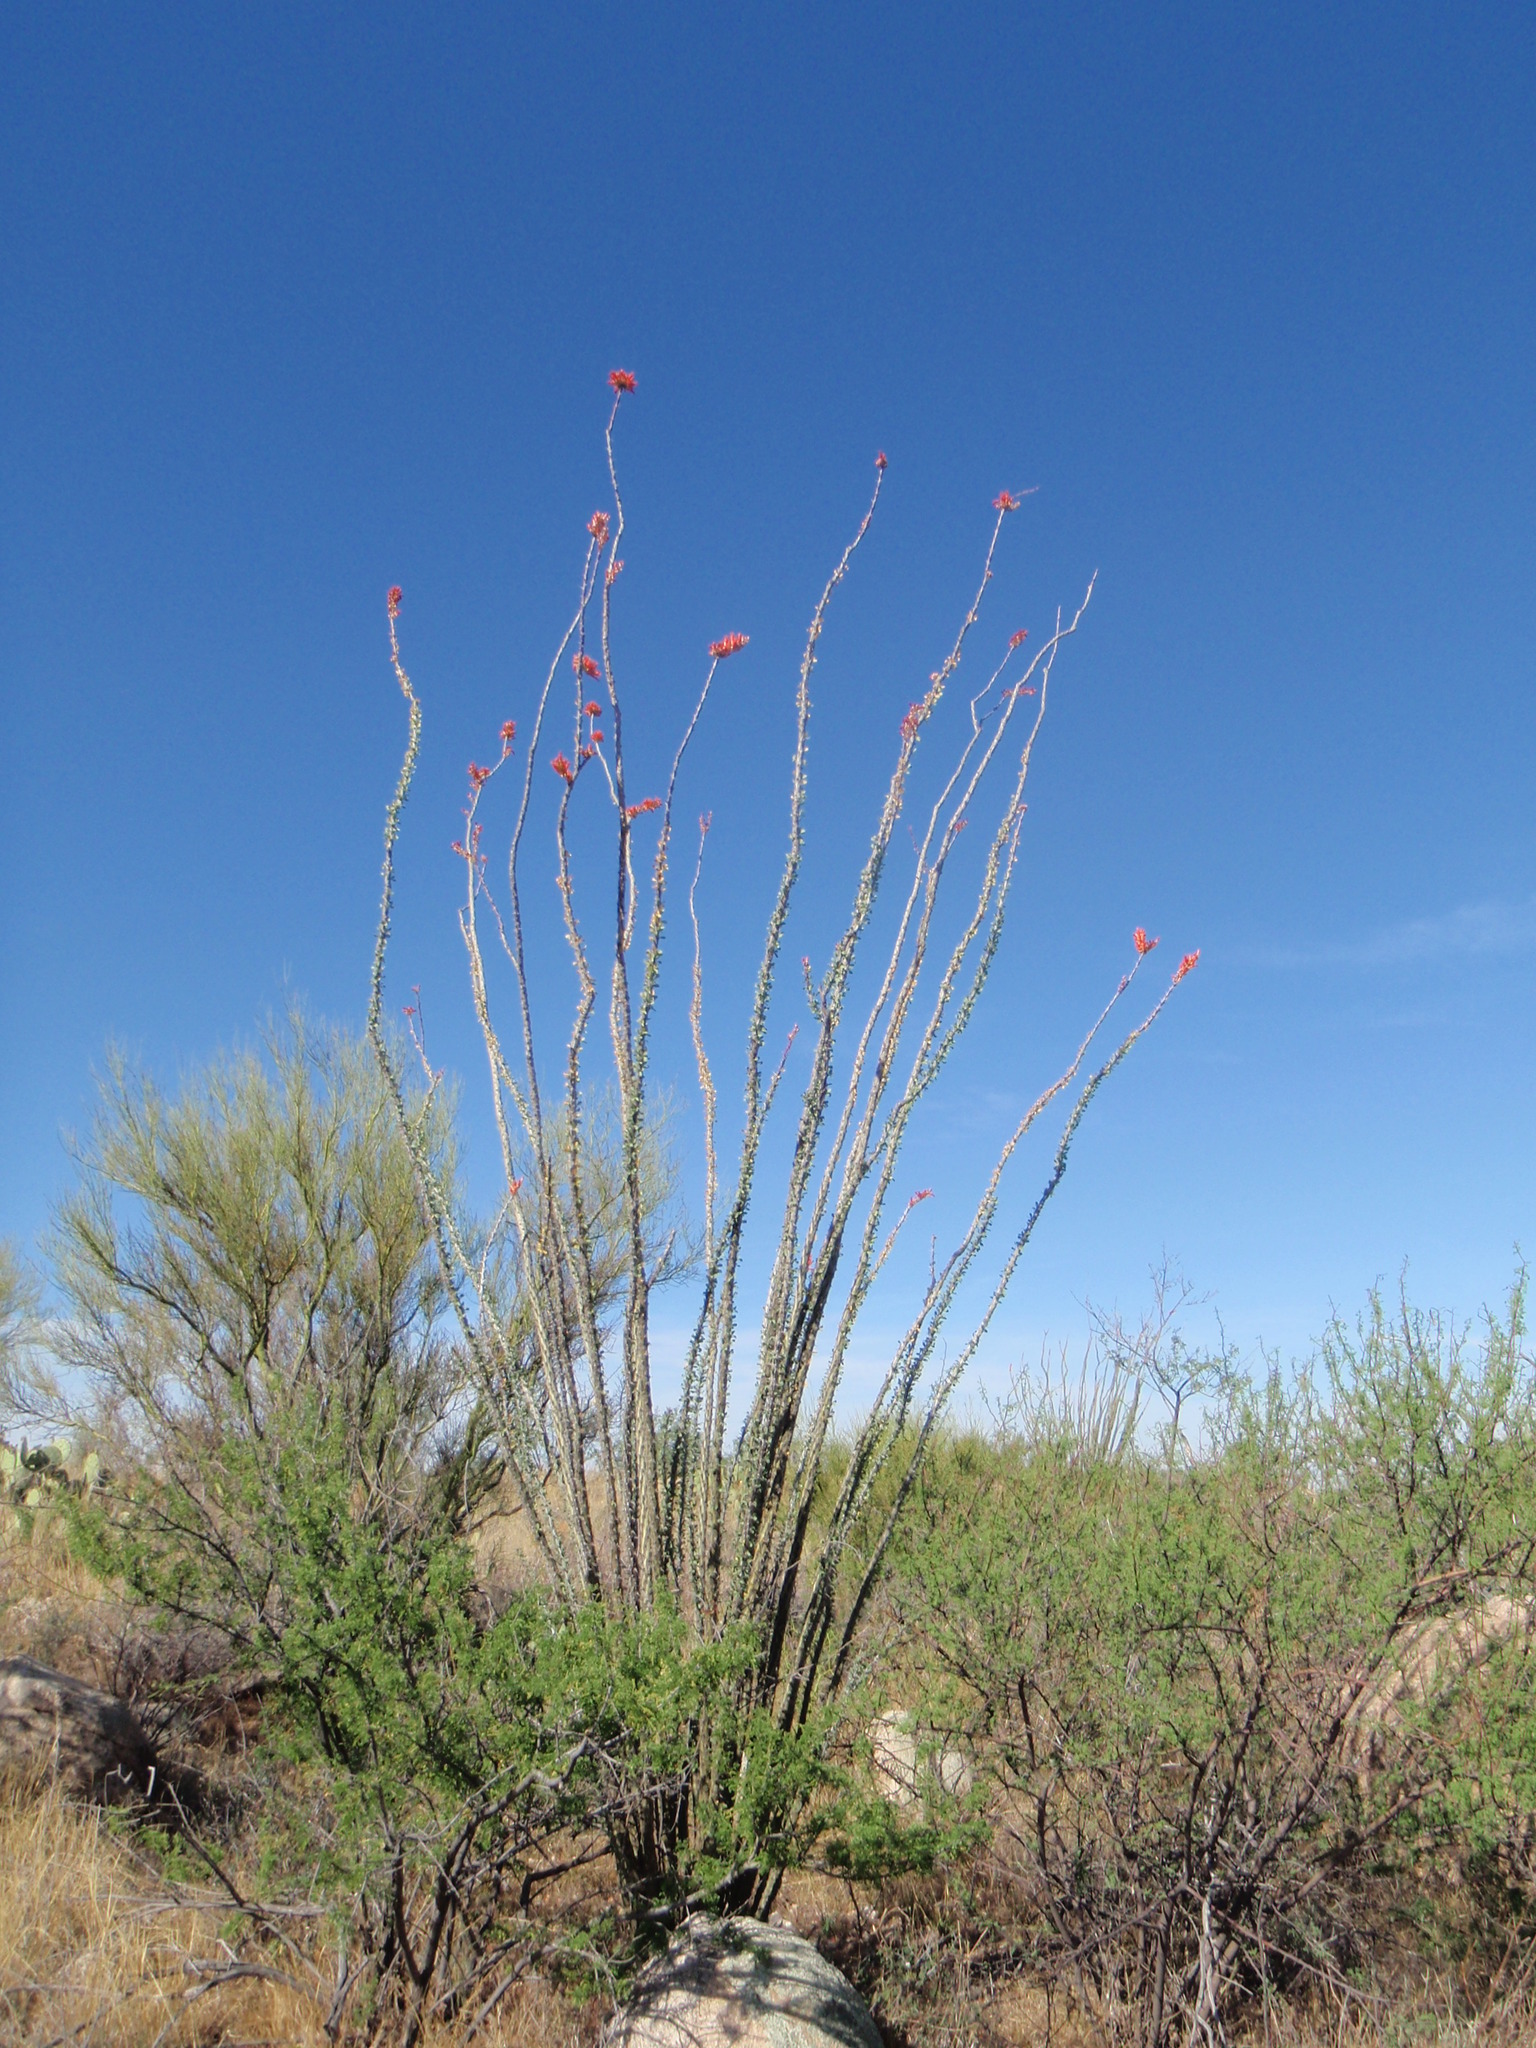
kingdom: Plantae
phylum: Tracheophyta
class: Magnoliopsida
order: Ericales
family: Fouquieriaceae
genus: Fouquieria
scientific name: Fouquieria splendens
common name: Vine-cactus
